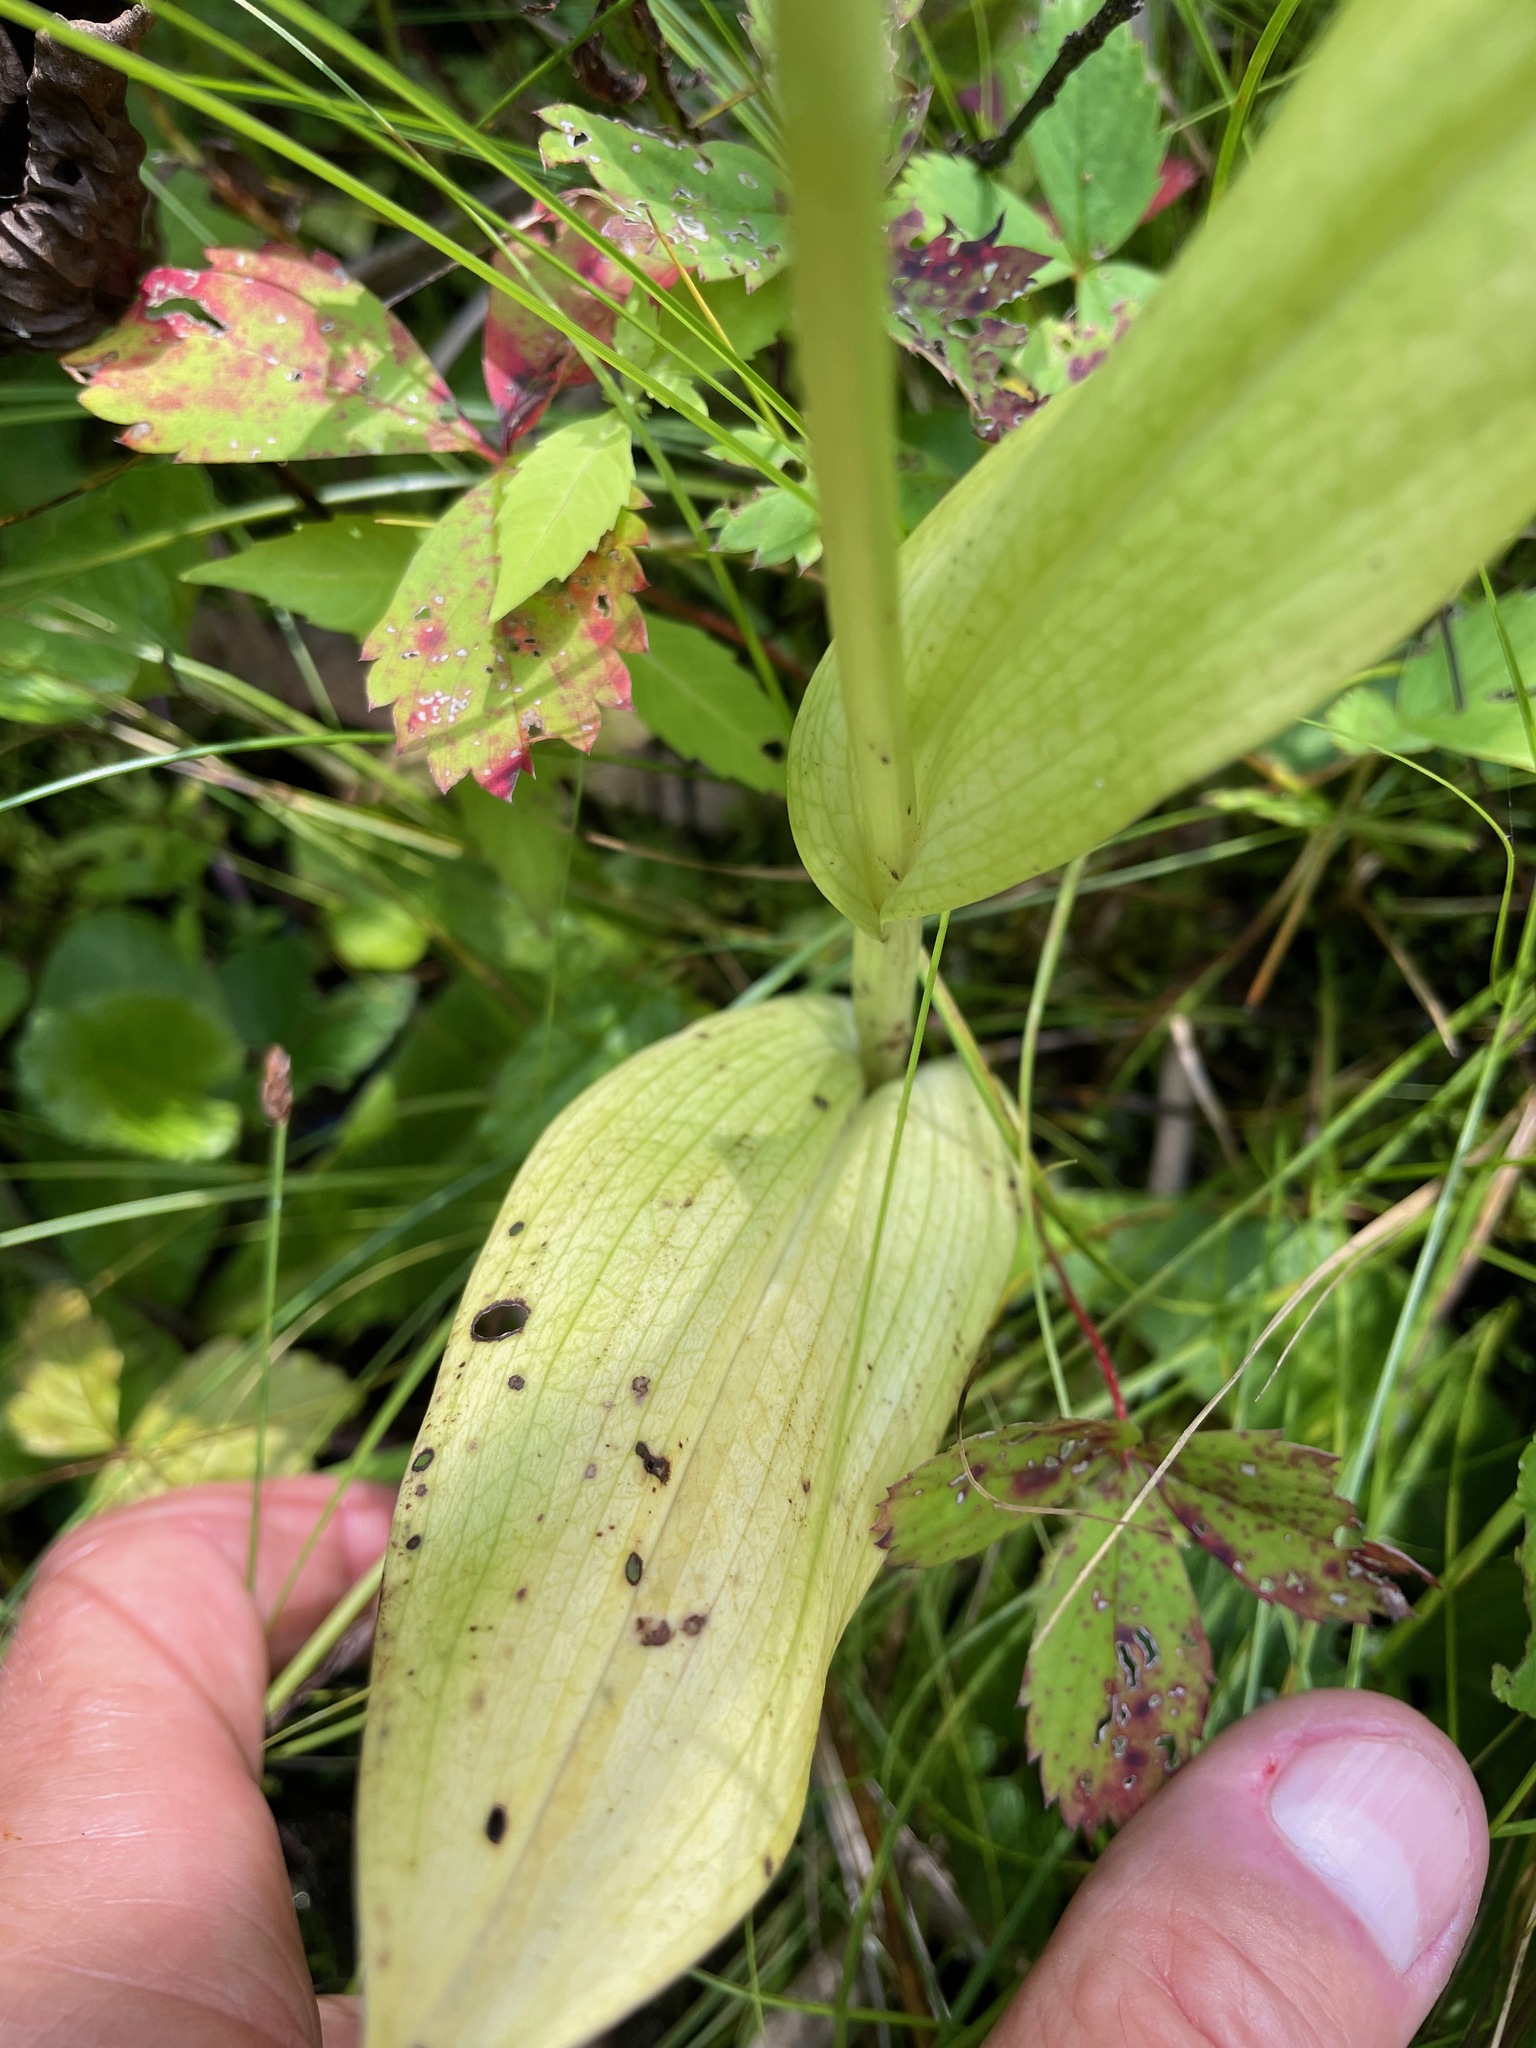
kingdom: Plantae
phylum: Tracheophyta
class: Liliopsida
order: Asparagales
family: Orchidaceae
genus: Platanthera
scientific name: Platanthera psycodes
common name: Lesser purple fringed orchid
